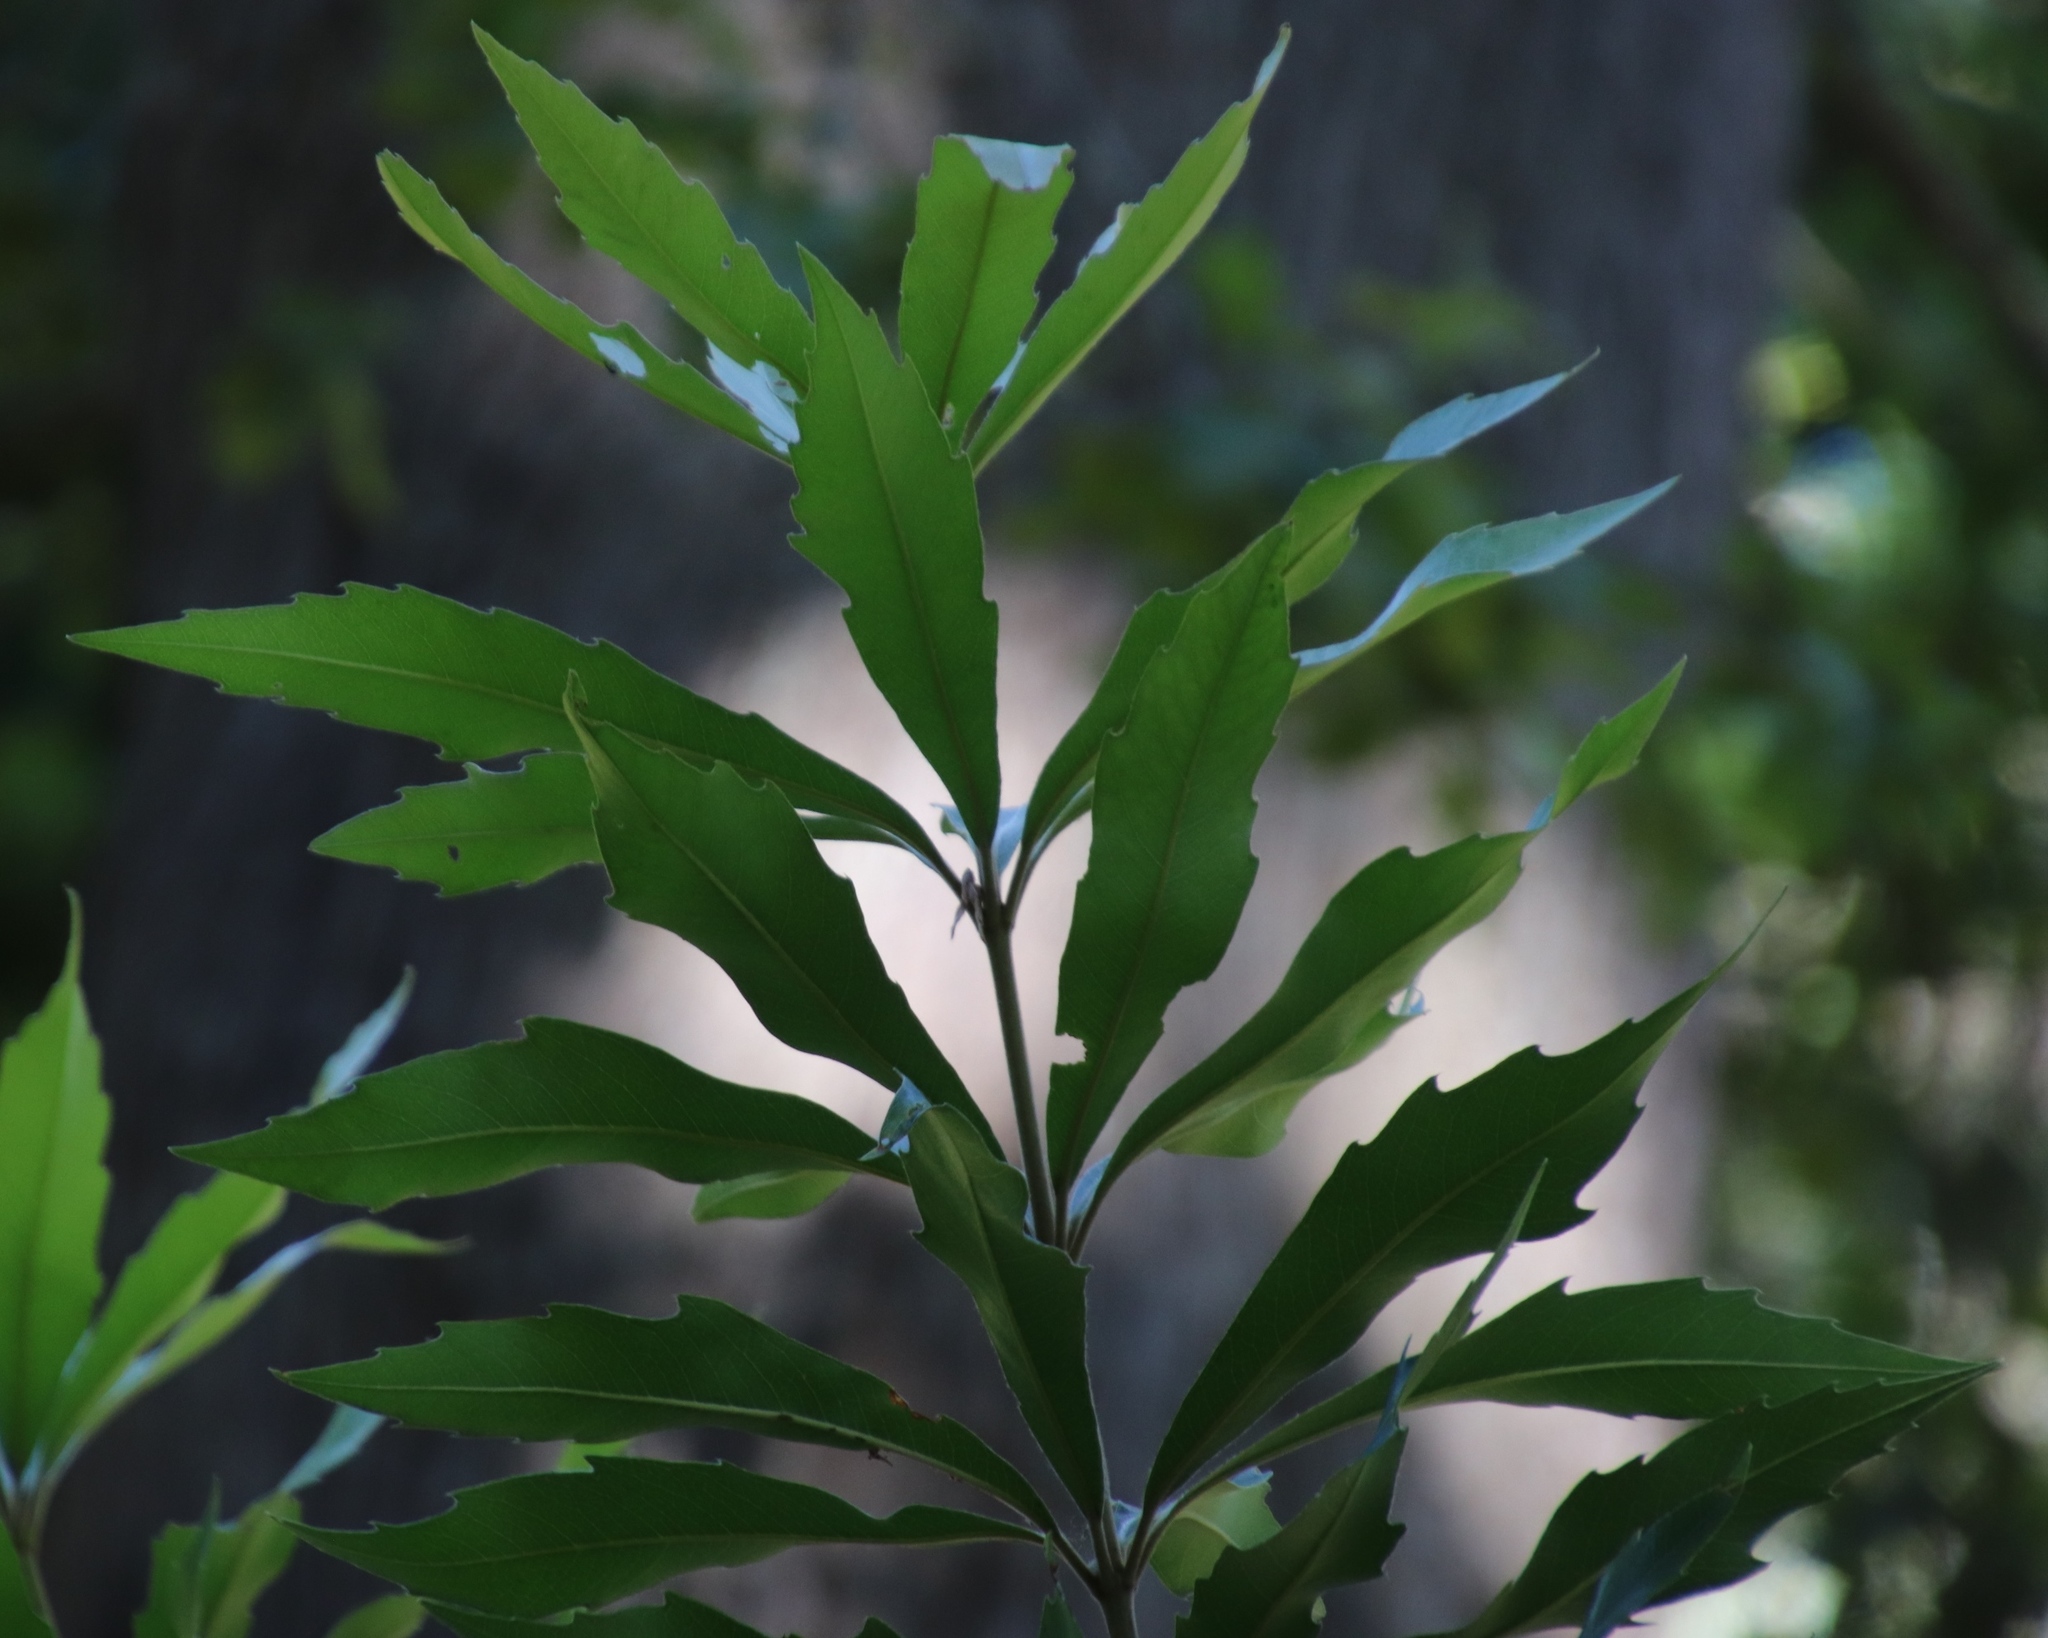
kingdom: Plantae
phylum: Tracheophyta
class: Magnoliopsida
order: Proteales
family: Proteaceae
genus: Brabejum
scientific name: Brabejum stellatifolium
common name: Wild almond
